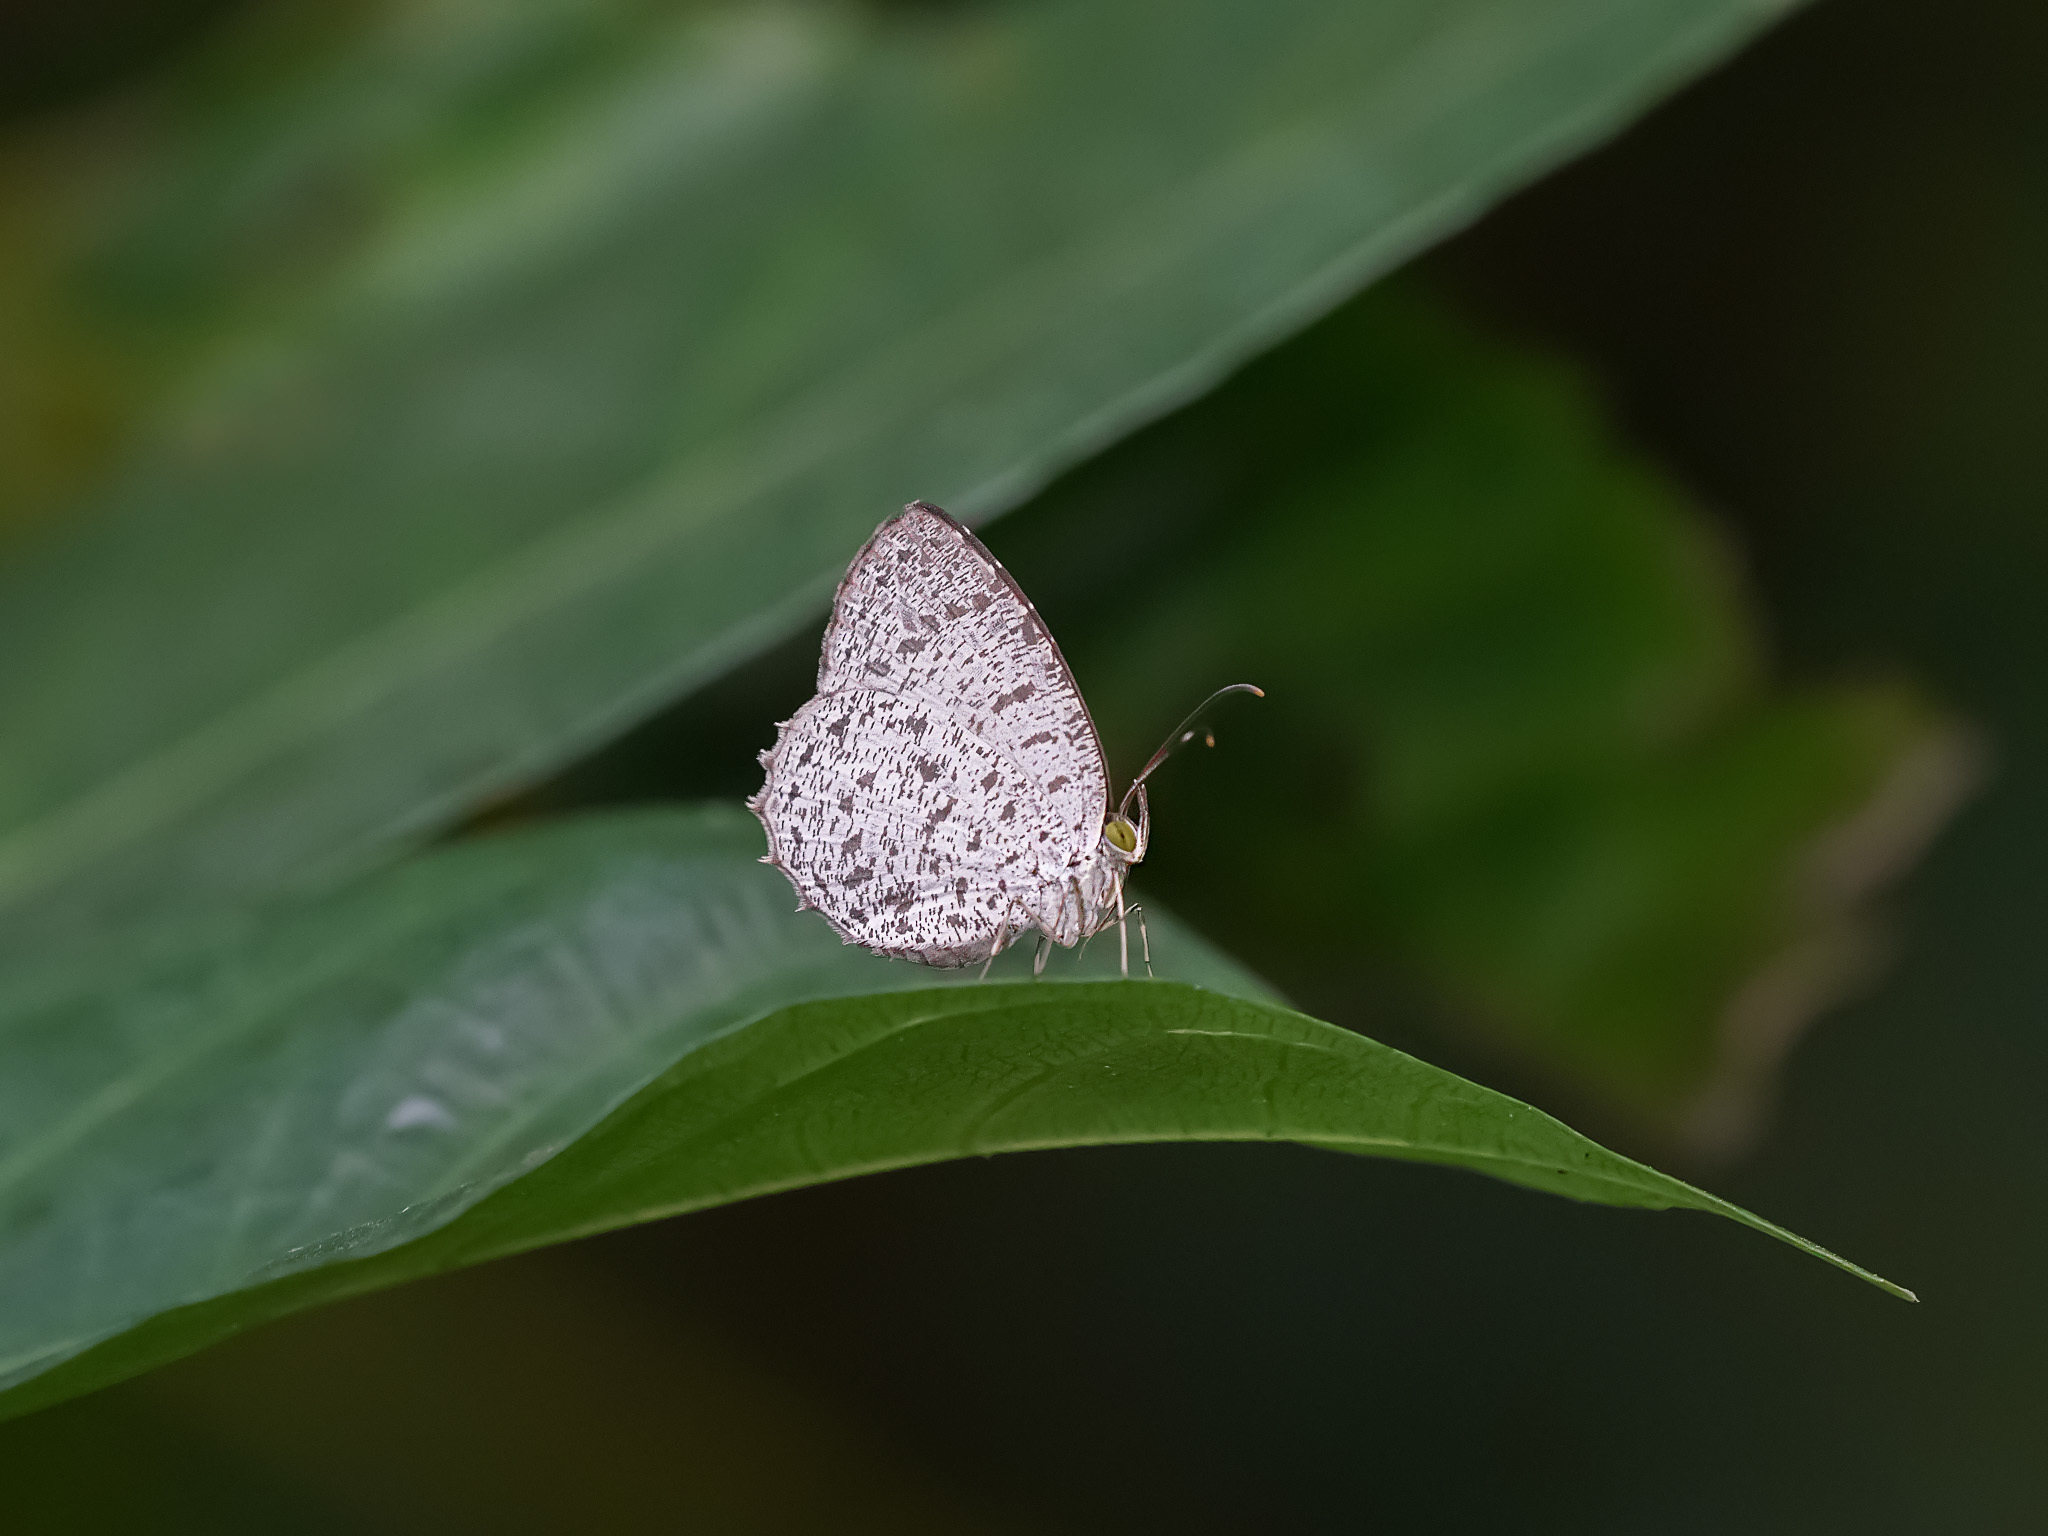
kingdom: Animalia
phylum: Arthropoda
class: Insecta
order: Lepidoptera
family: Lycaenidae
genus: Allotinus
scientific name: Allotinus unicolor
